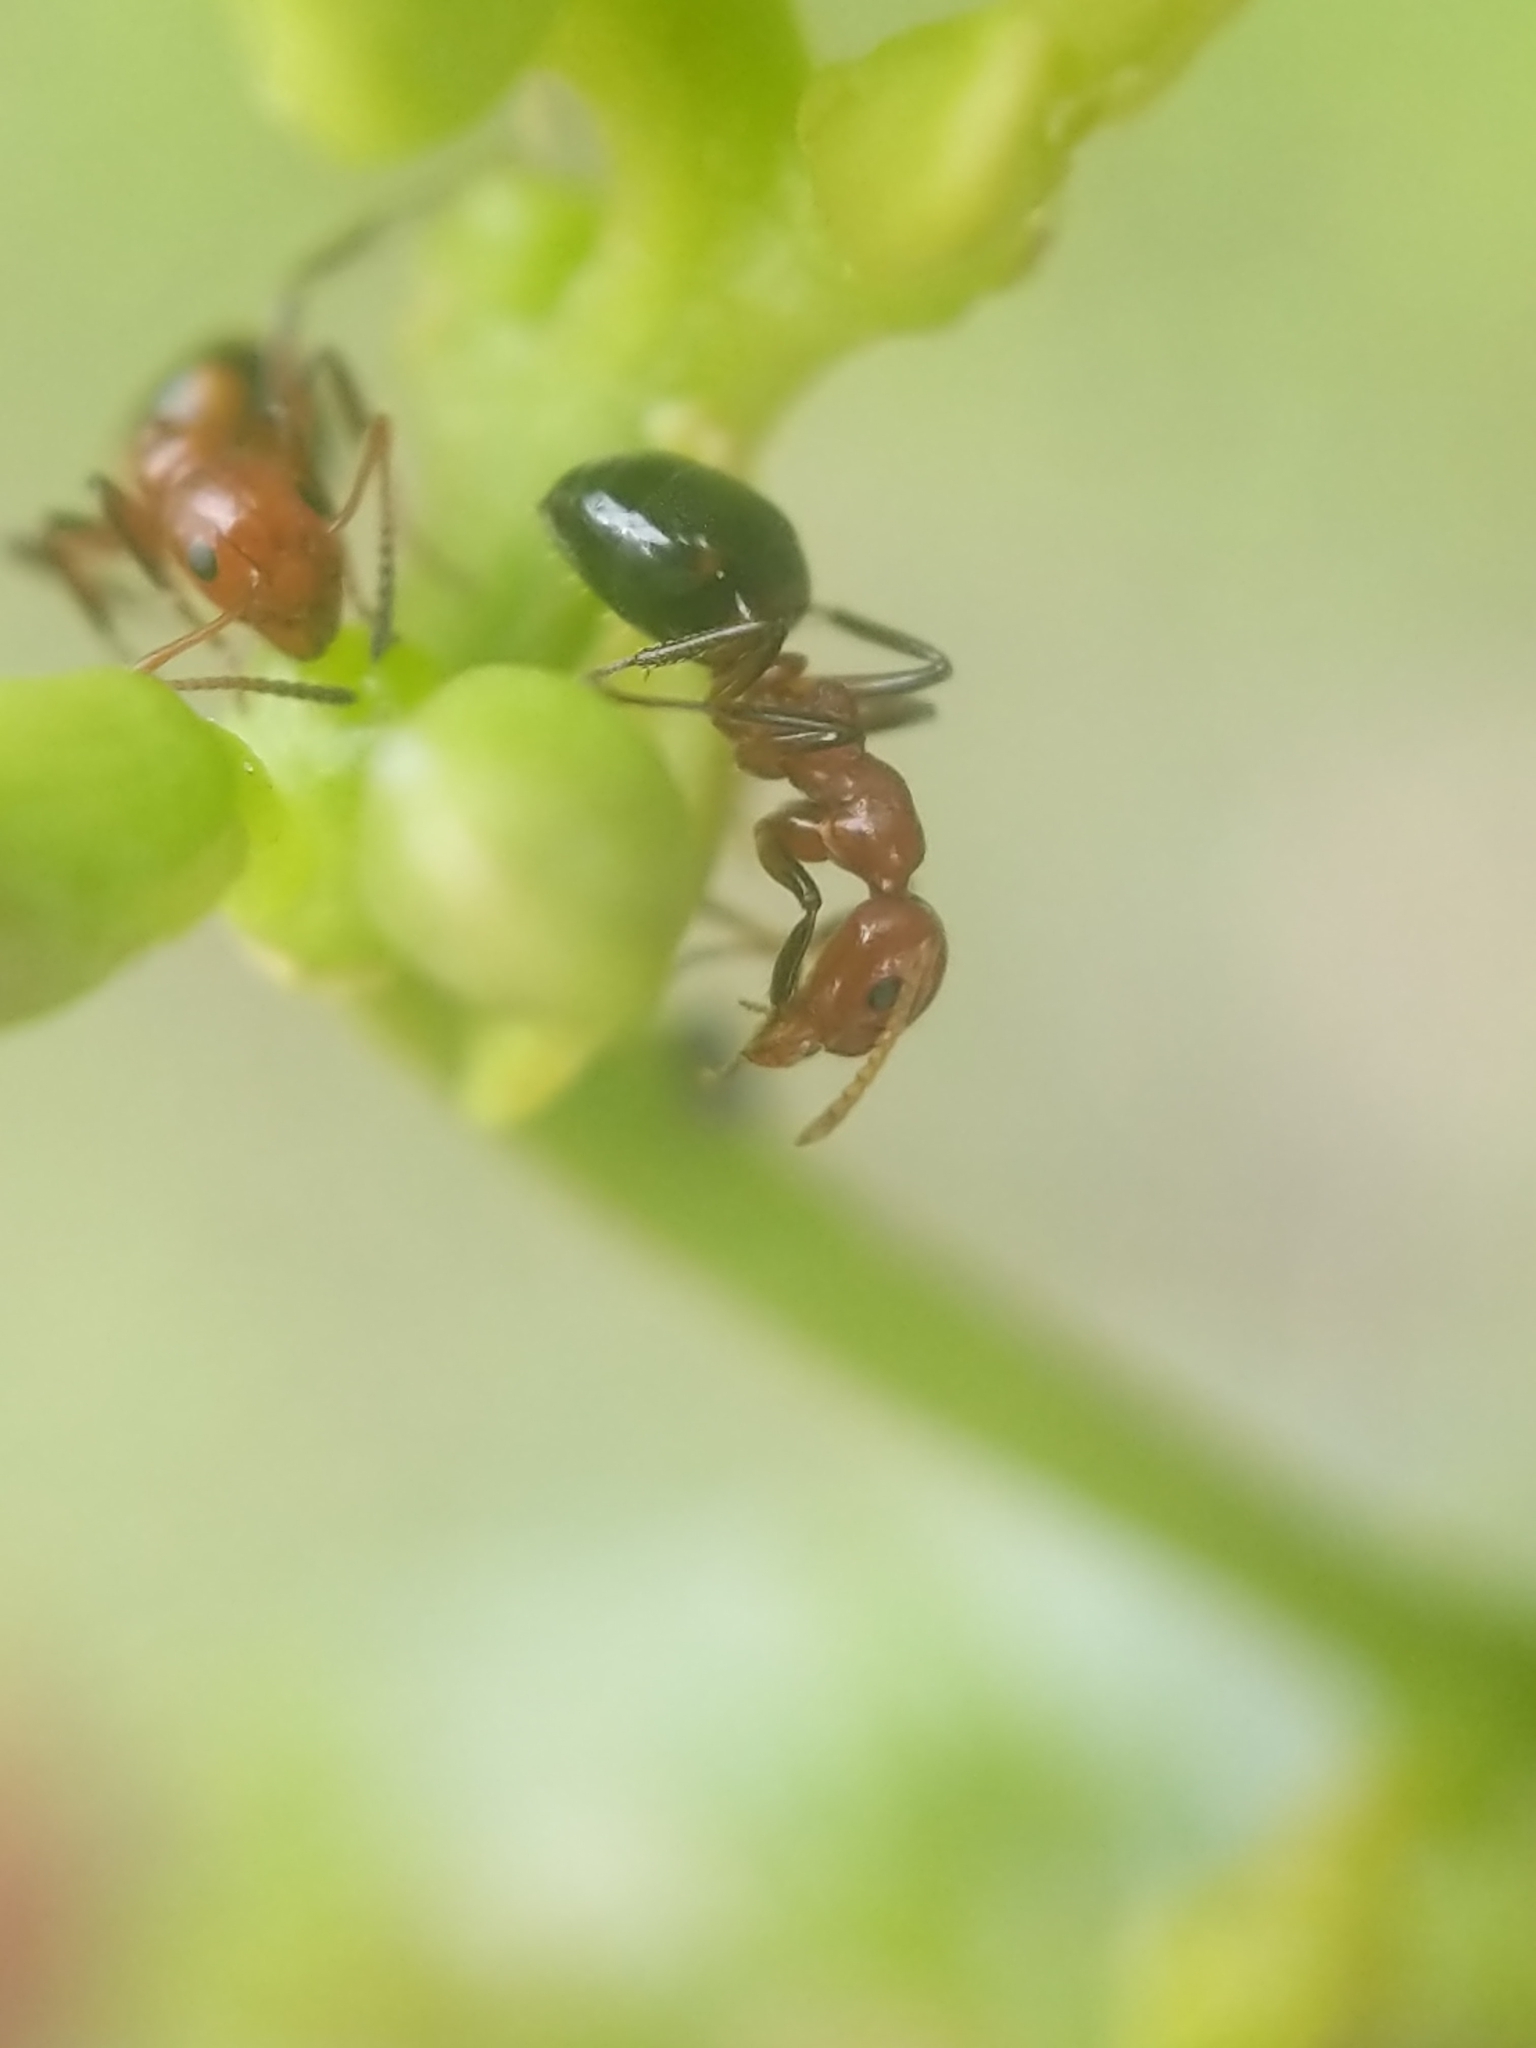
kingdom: Animalia
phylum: Arthropoda
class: Insecta
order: Hymenoptera
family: Formicidae
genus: Dolichoderus
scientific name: Dolichoderus mariae
